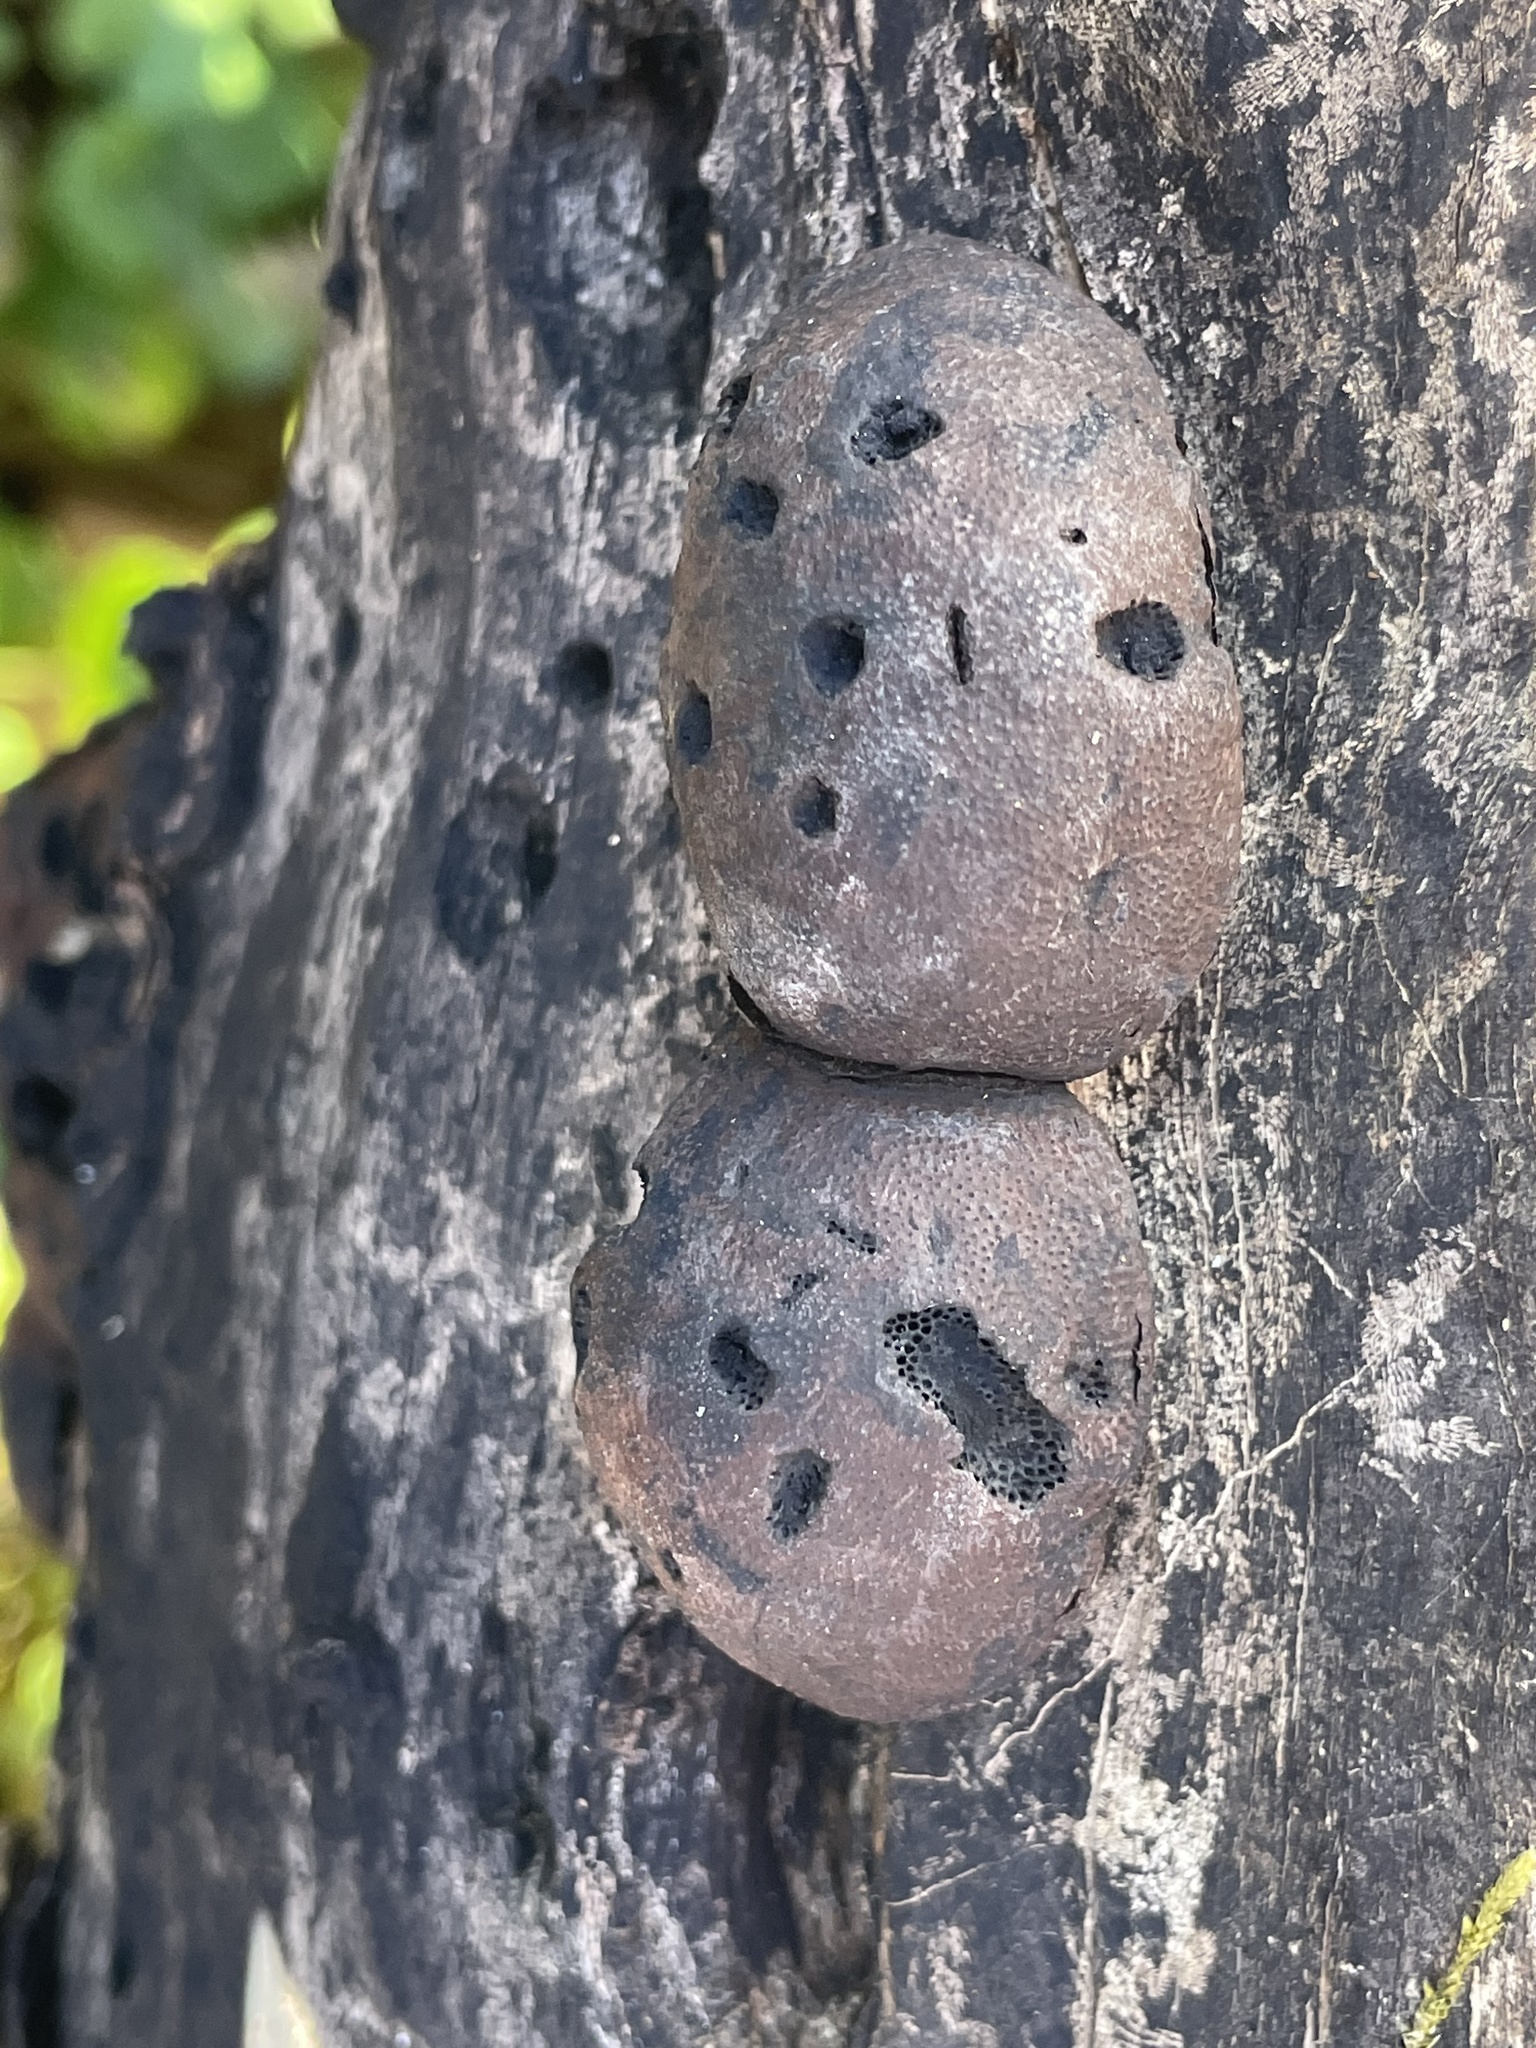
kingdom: Fungi
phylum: Ascomycota
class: Sordariomycetes
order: Xylariales
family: Hypoxylaceae
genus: Daldinia
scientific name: Daldinia childiae
